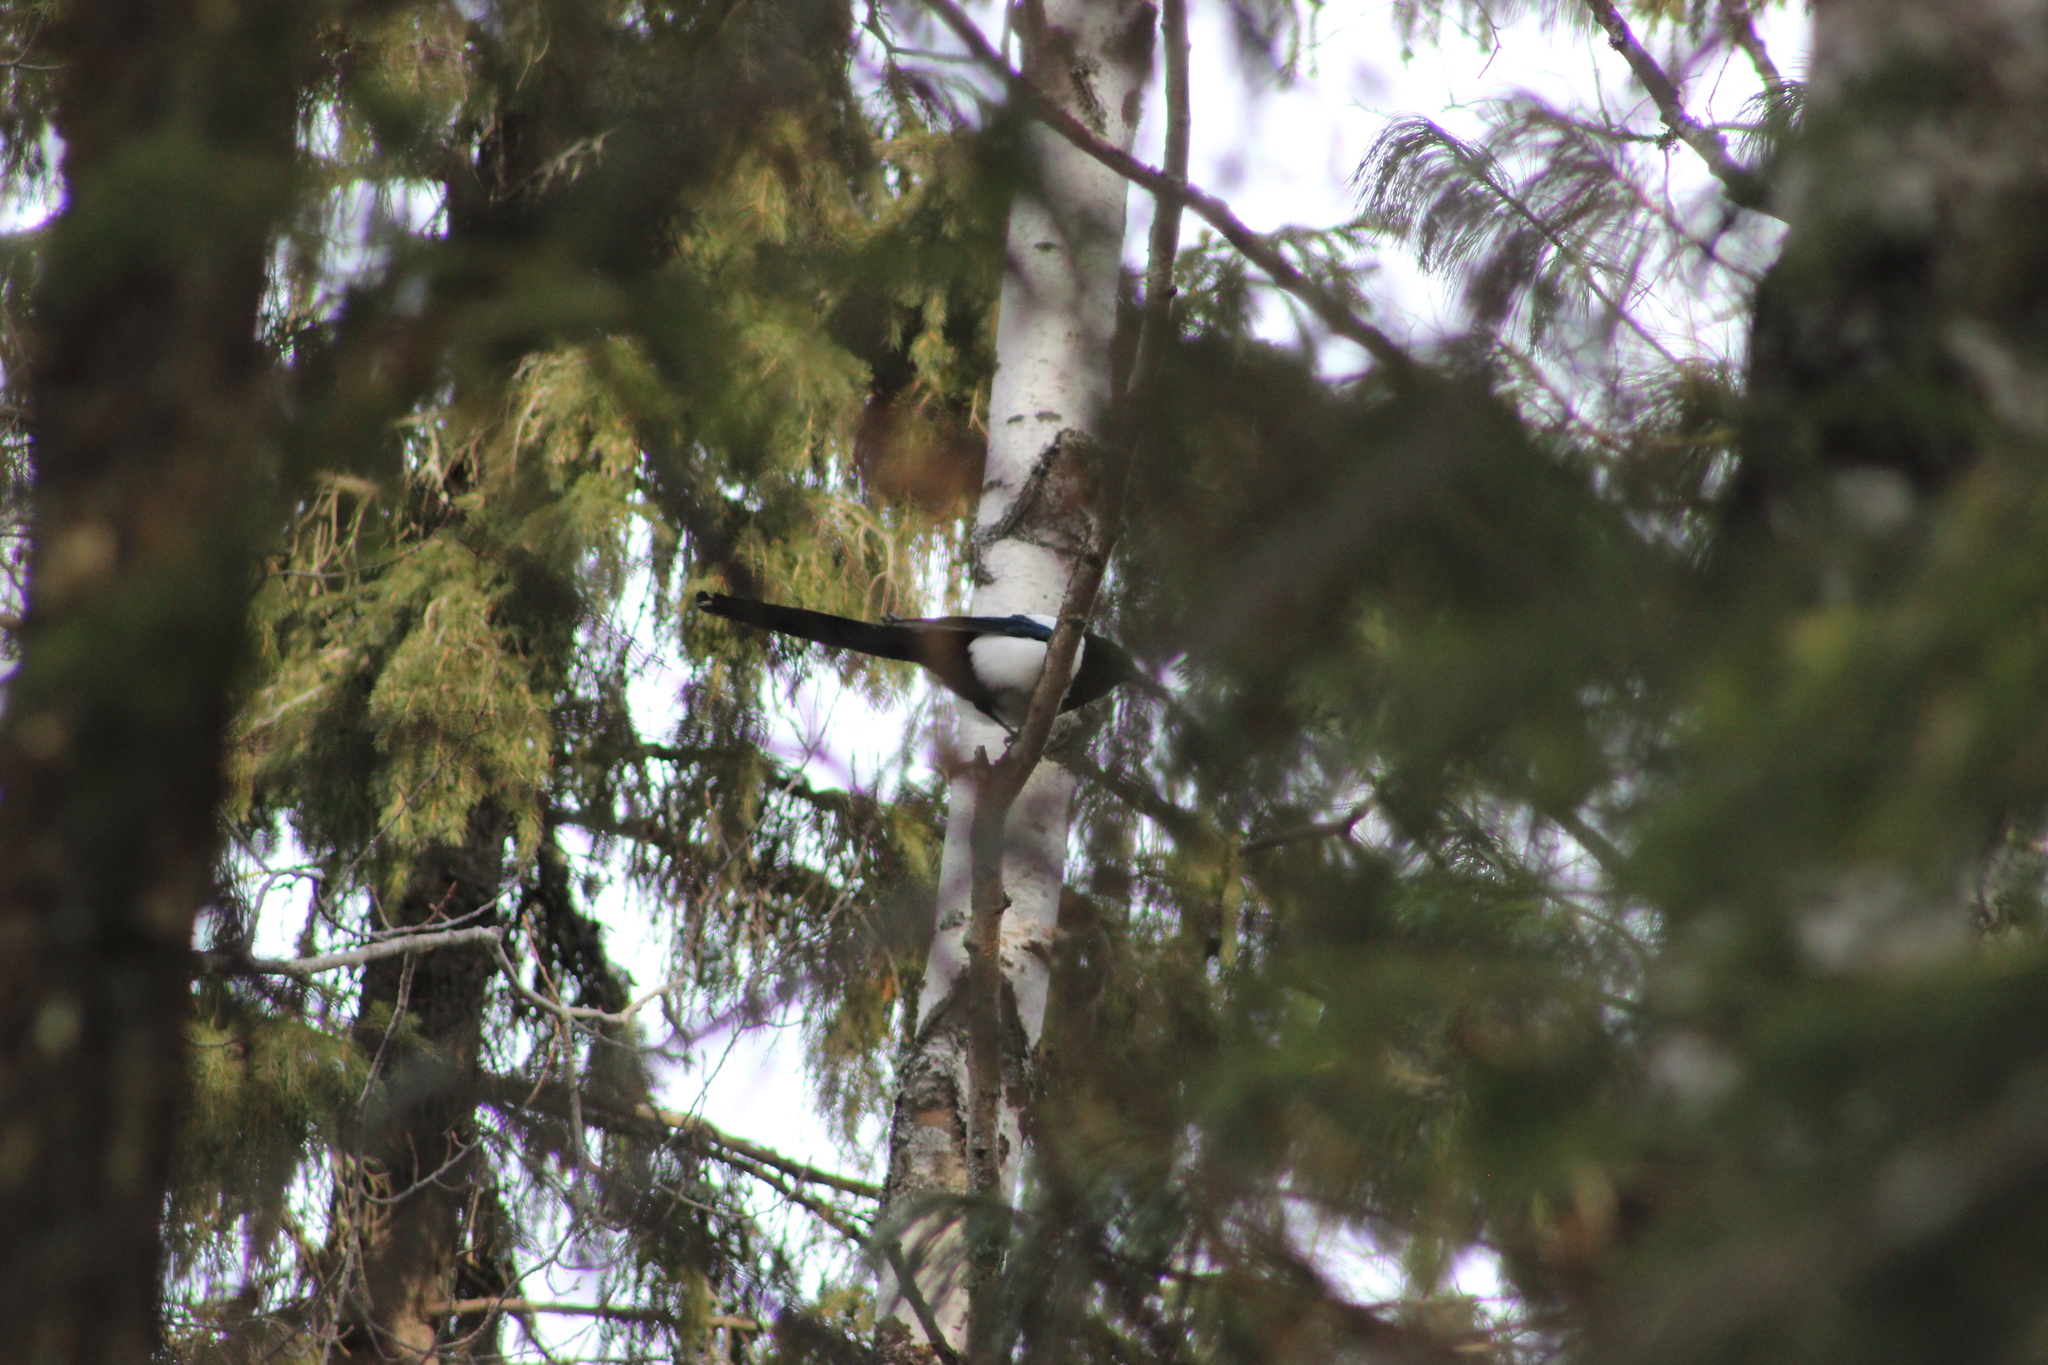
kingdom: Animalia
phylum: Chordata
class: Aves
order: Passeriformes
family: Corvidae
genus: Pica
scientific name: Pica pica
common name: Eurasian magpie
